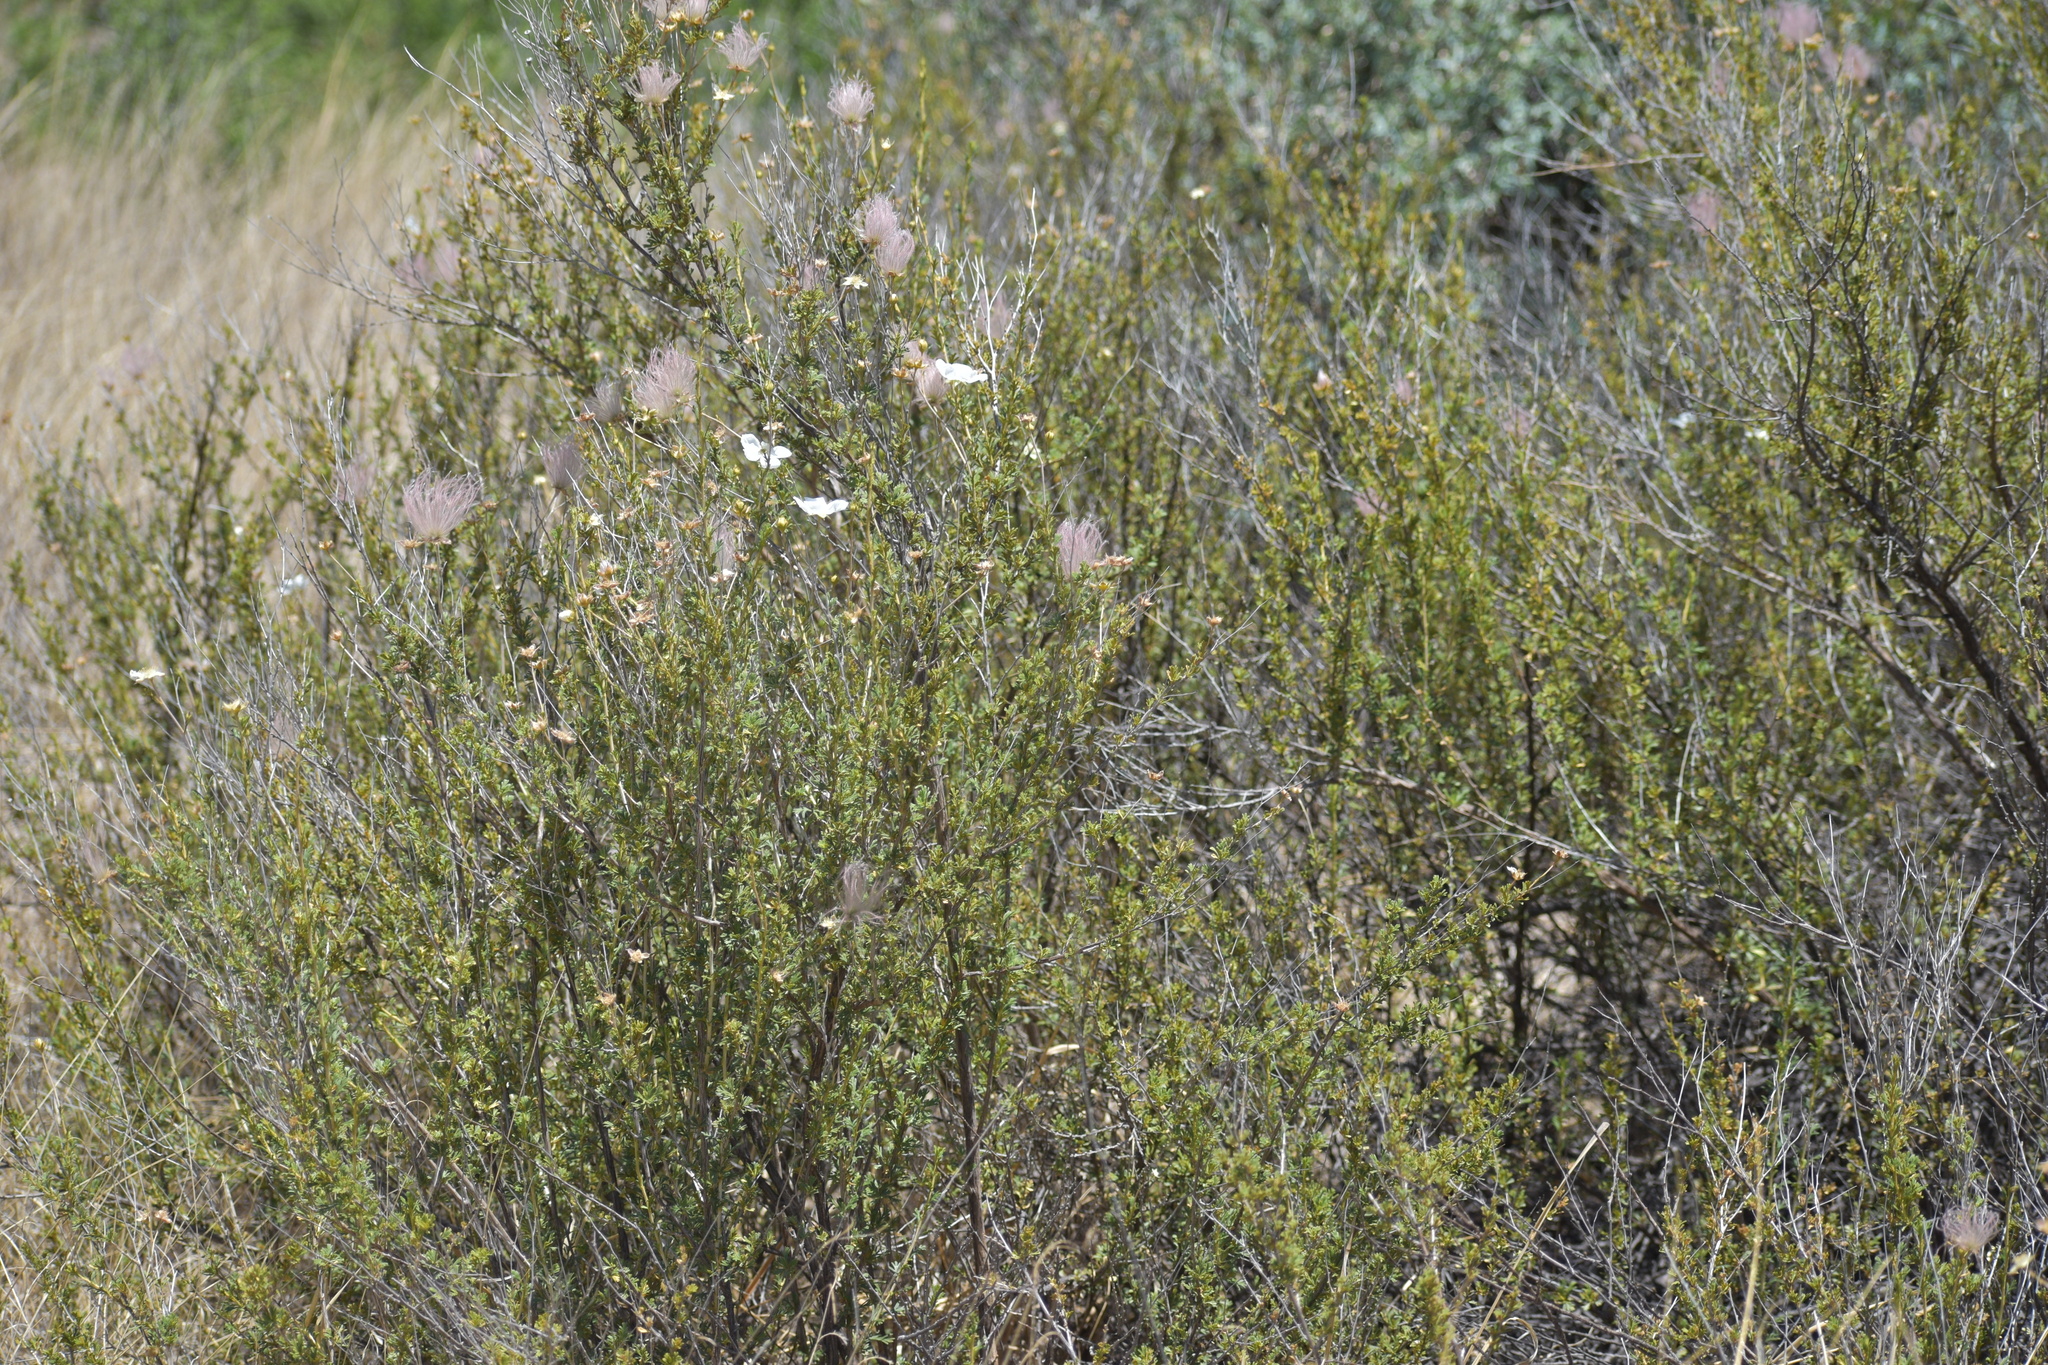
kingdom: Plantae
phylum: Tracheophyta
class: Magnoliopsida
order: Rosales
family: Rosaceae
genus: Fallugia
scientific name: Fallugia paradoxa
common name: Apache-plume
